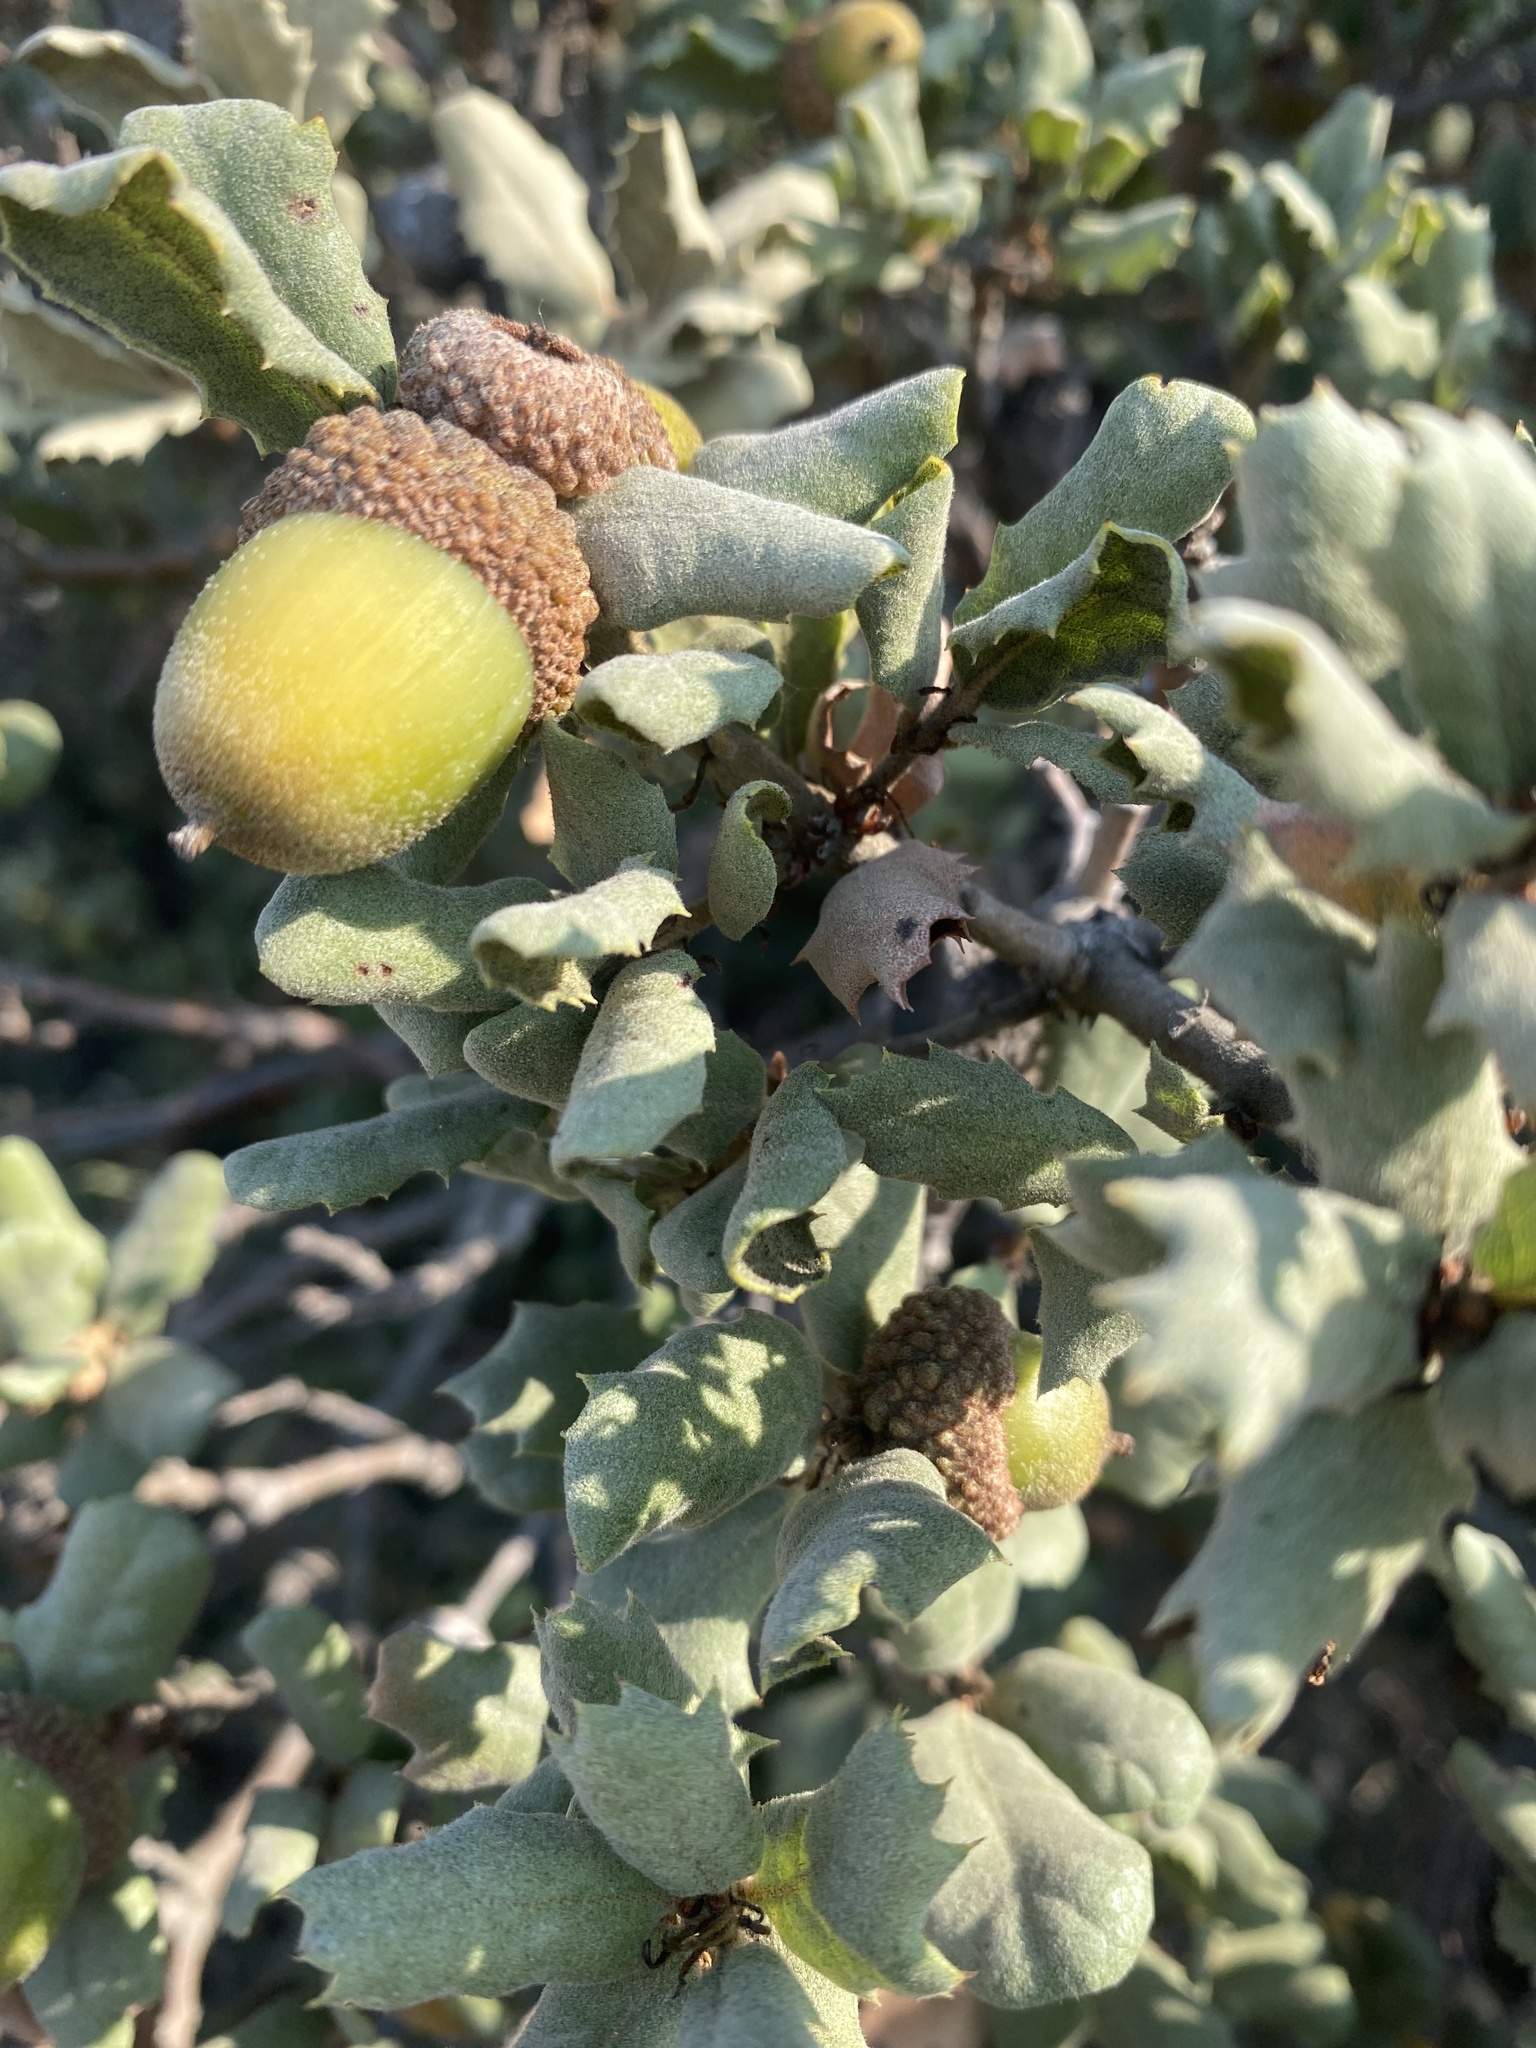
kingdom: Plantae
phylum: Tracheophyta
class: Magnoliopsida
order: Fagales
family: Fagaceae
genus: Quercus
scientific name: Quercus durata
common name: Leather oak
